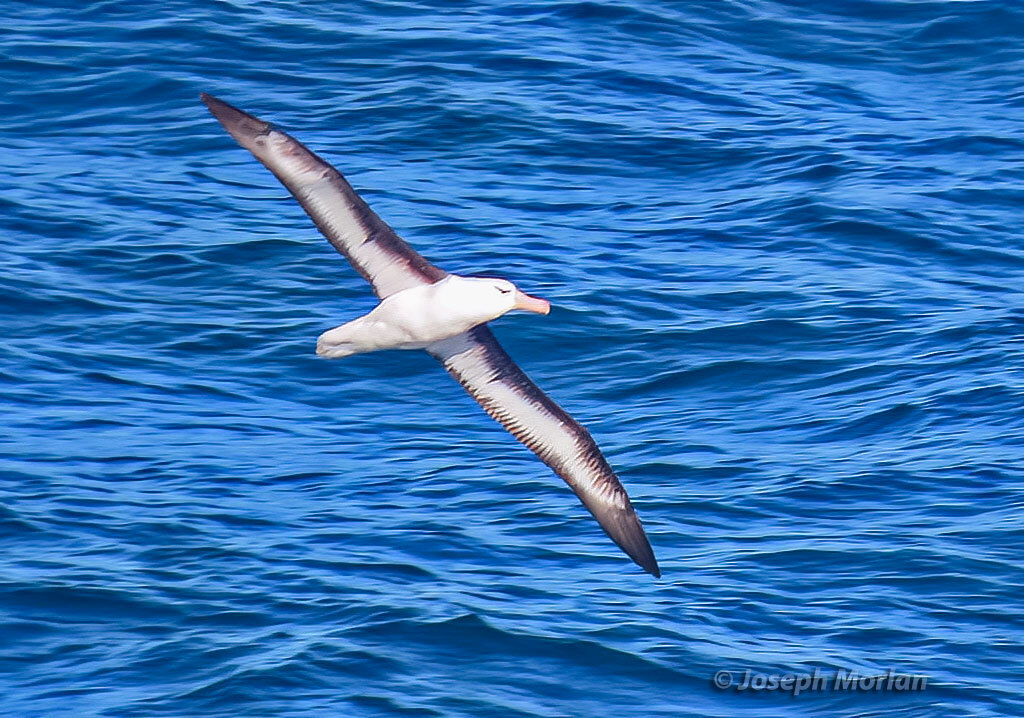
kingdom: Animalia
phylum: Chordata
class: Aves
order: Procellariiformes
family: Diomedeidae
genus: Thalassarche
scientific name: Thalassarche melanophris
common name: Black-browed albatross
